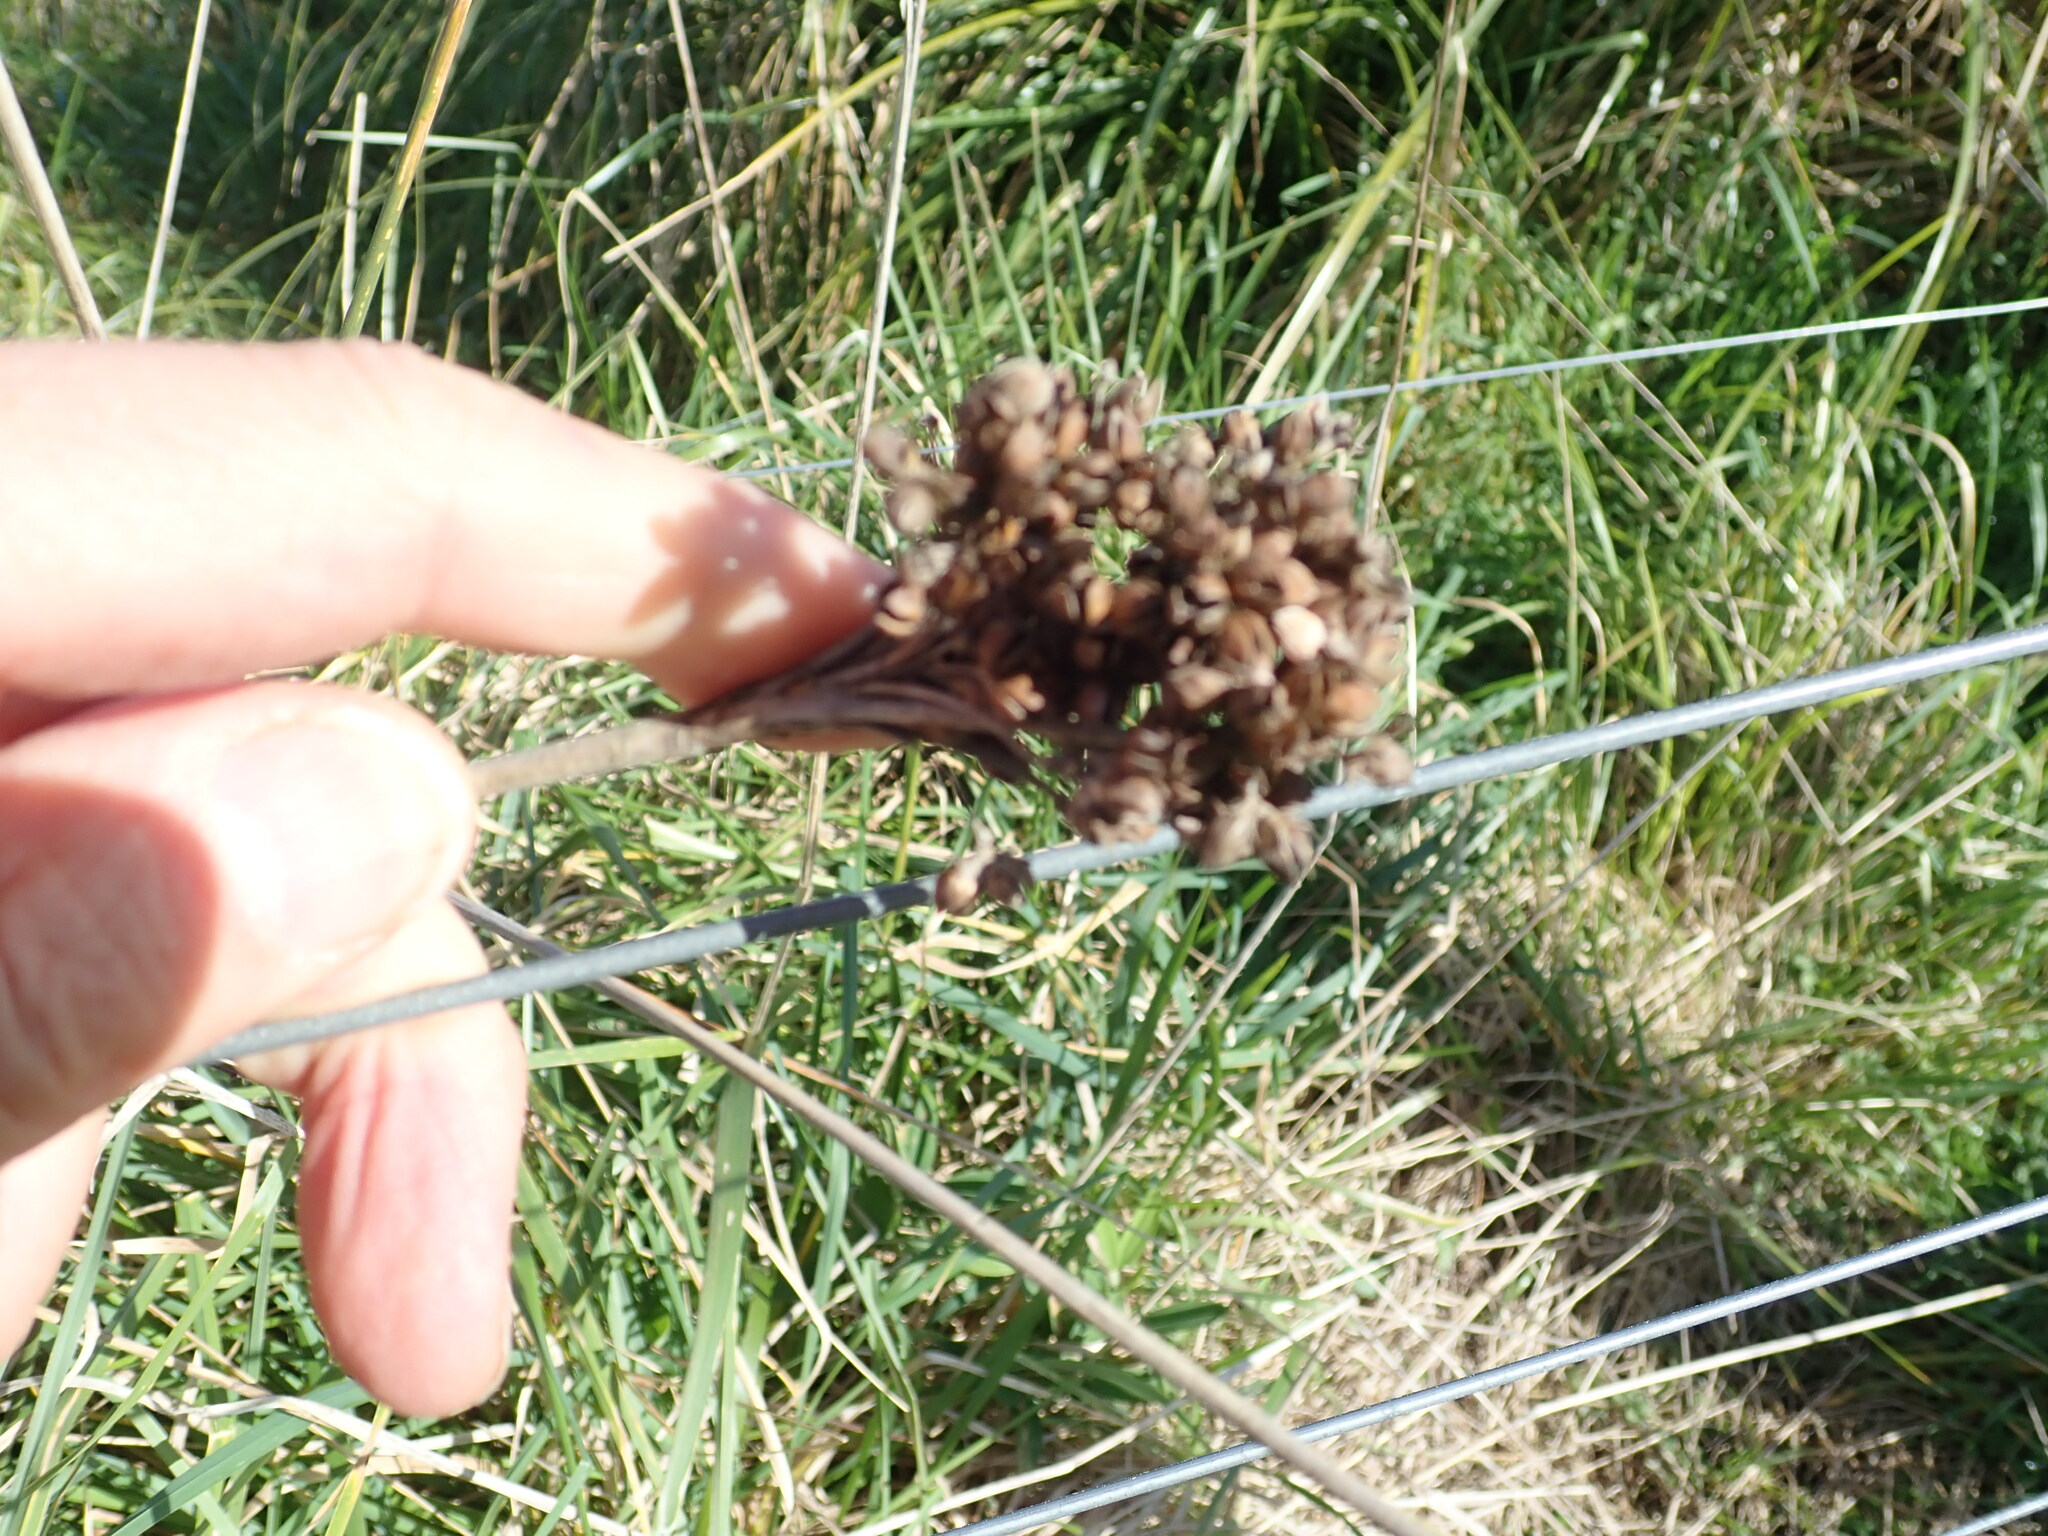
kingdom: Plantae
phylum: Tracheophyta
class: Liliopsida
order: Poales
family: Juncaceae
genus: Juncus
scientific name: Juncus acutus
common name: Sharp rush
